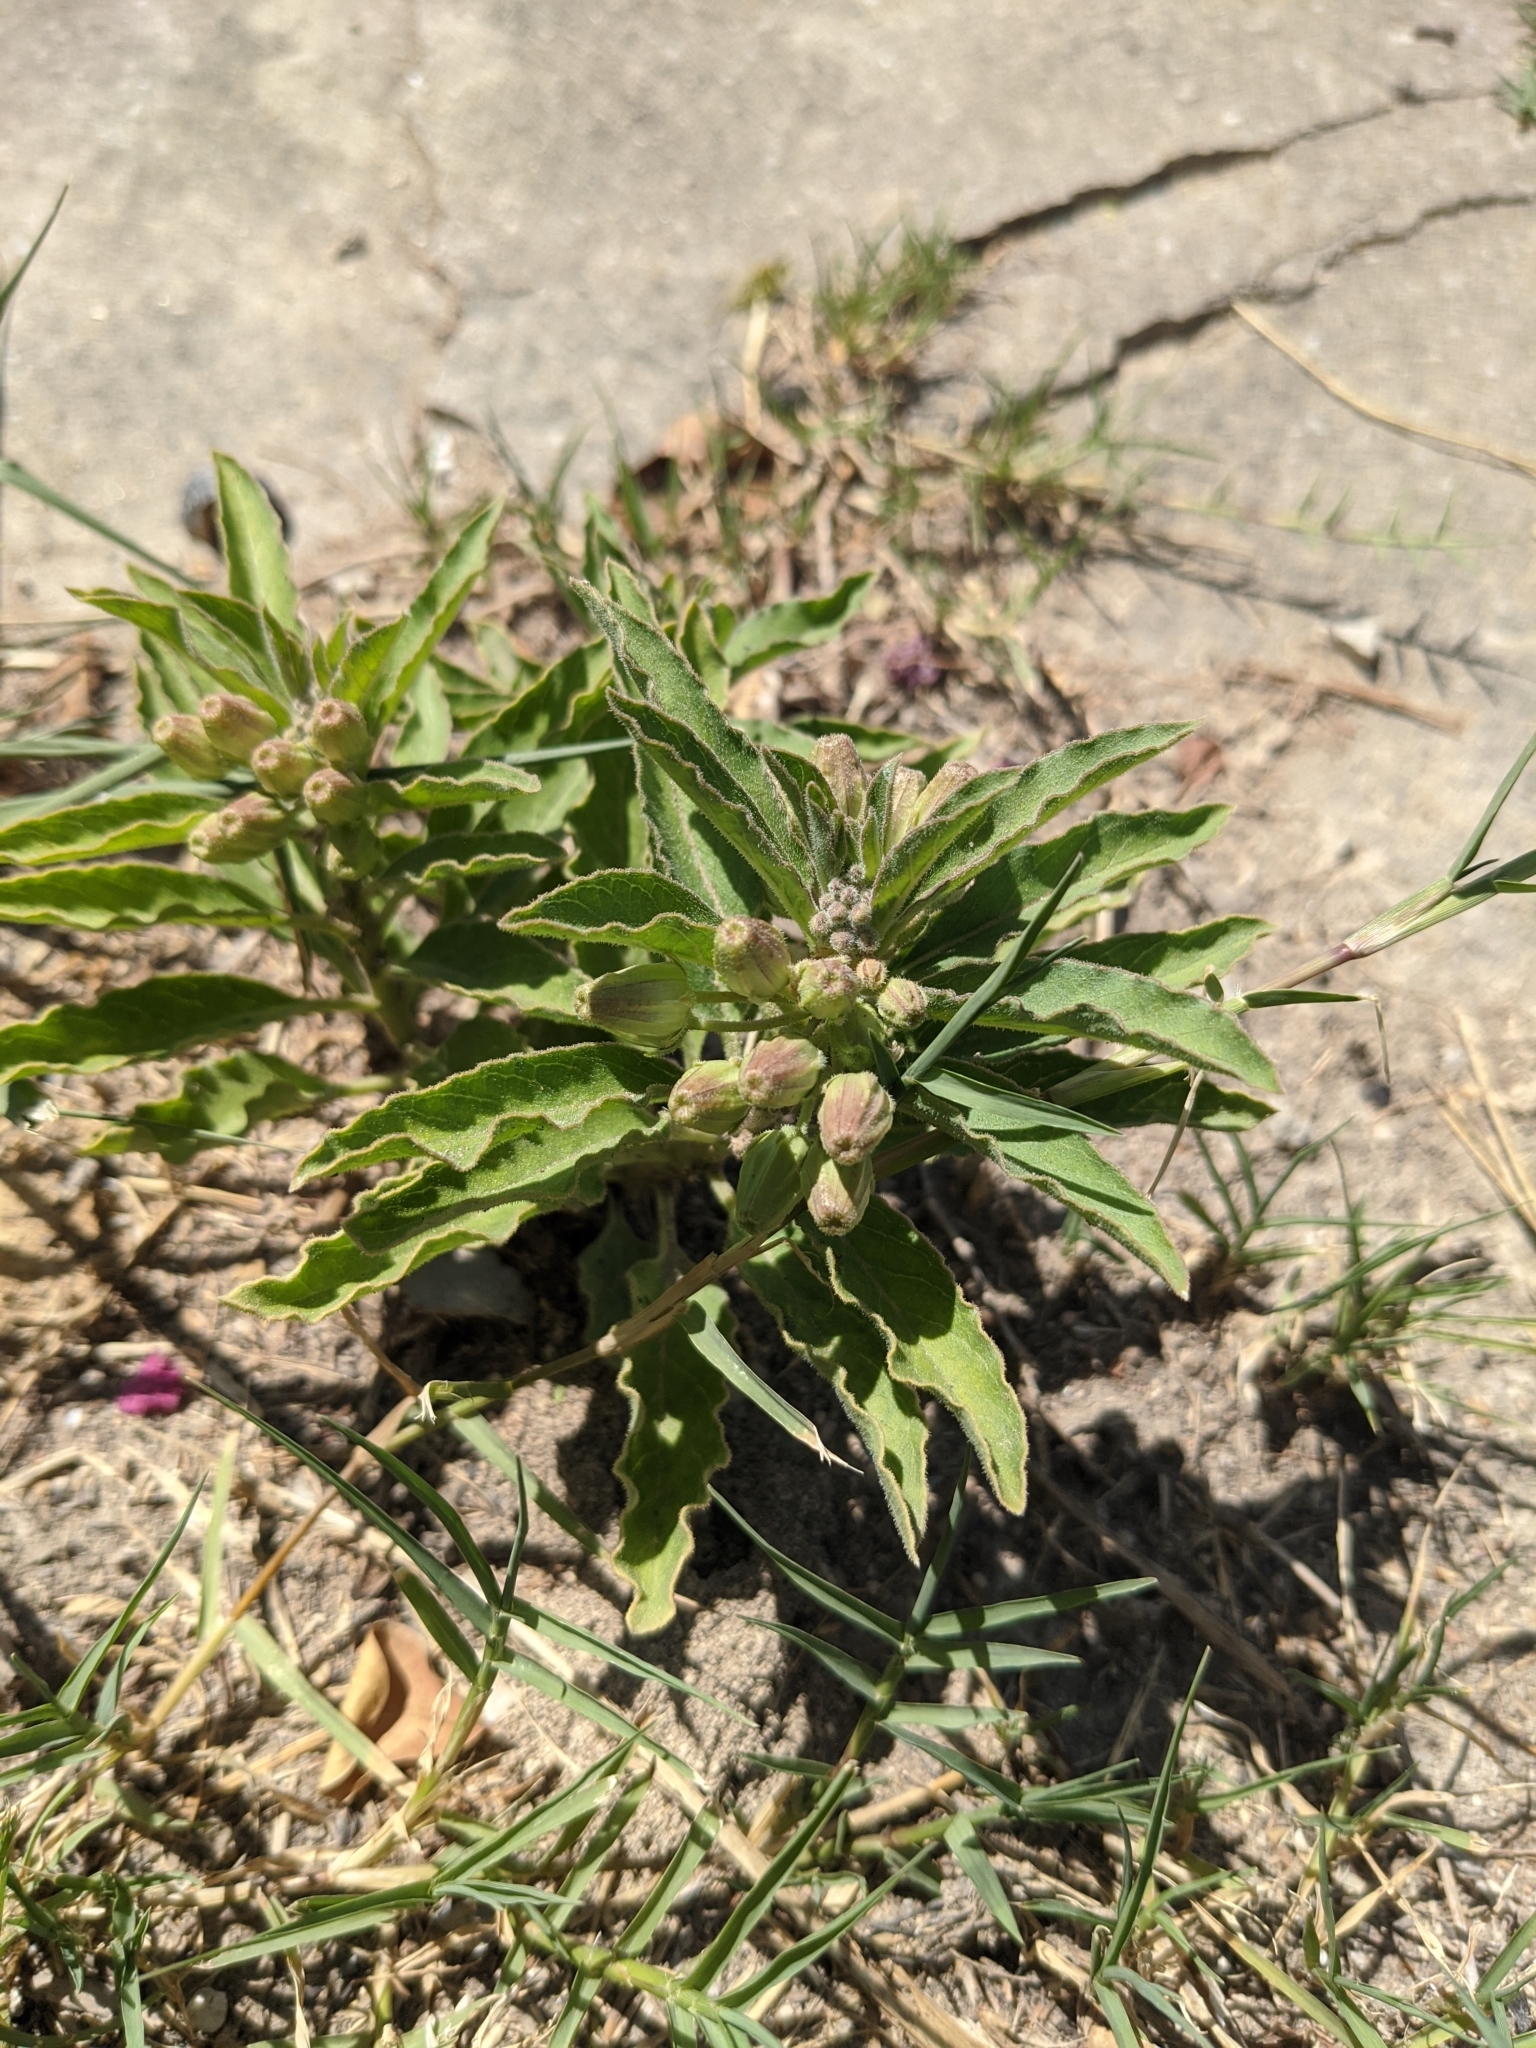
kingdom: Plantae
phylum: Tracheophyta
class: Magnoliopsida
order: Gentianales
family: Apocynaceae
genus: Asclepias
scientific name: Asclepias oenotheroides
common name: Zizotes milkweed
